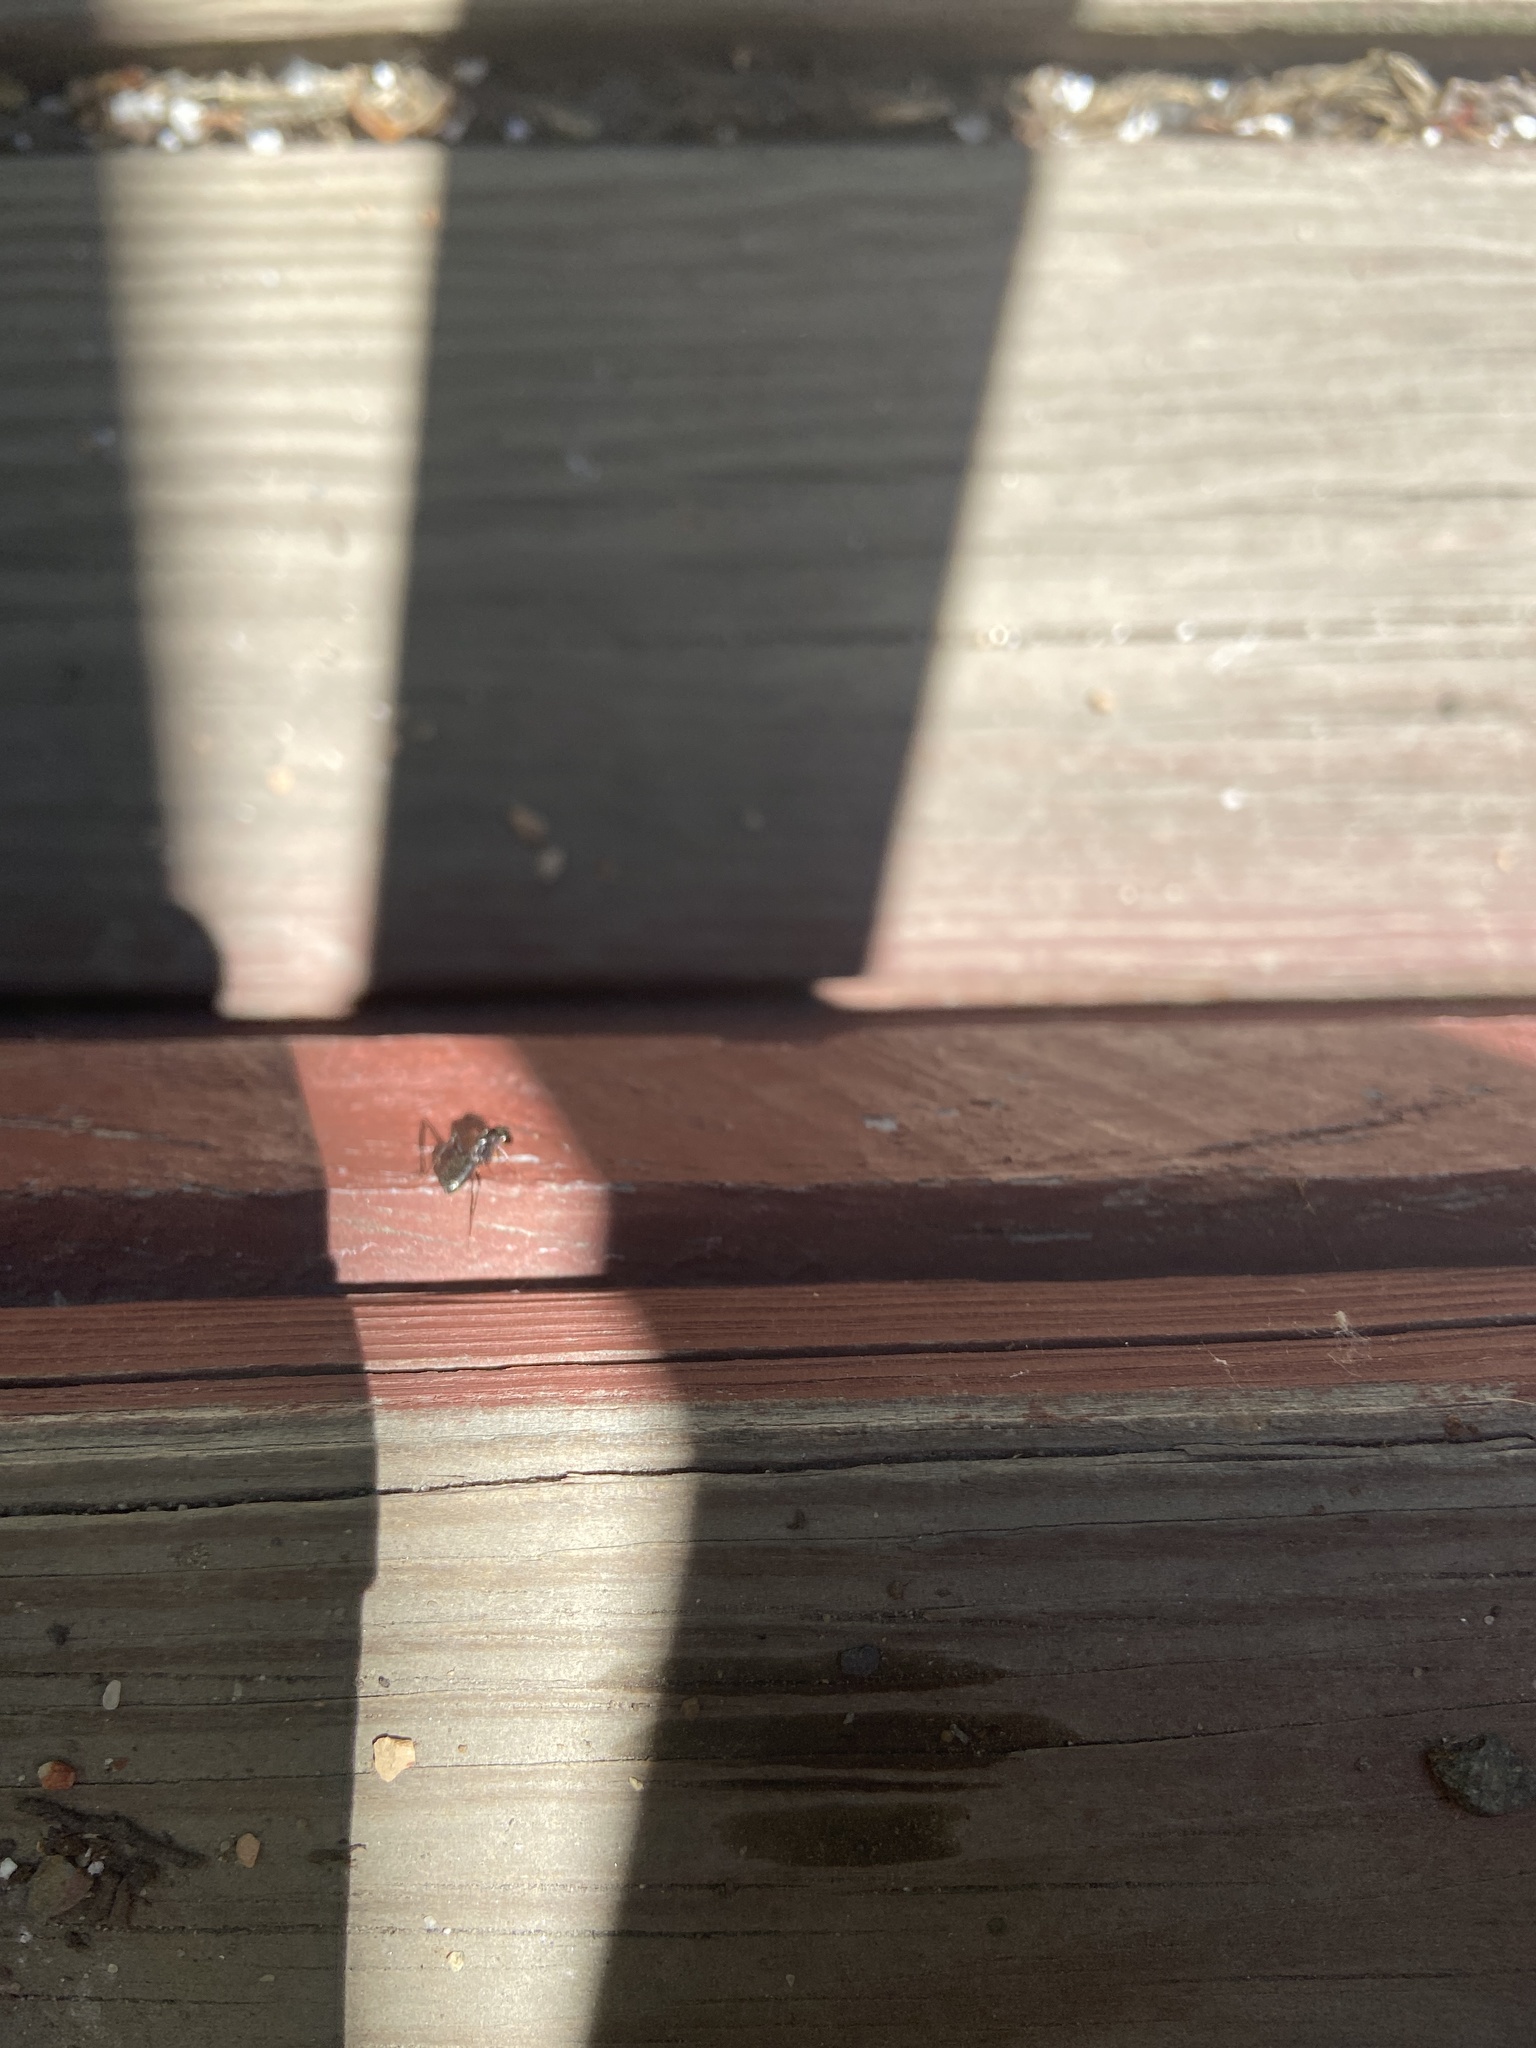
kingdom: Animalia
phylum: Arthropoda
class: Insecta
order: Hymenoptera
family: Formicidae
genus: Camponotus
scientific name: Camponotus pennsylvanicus
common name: Black carpenter ant
